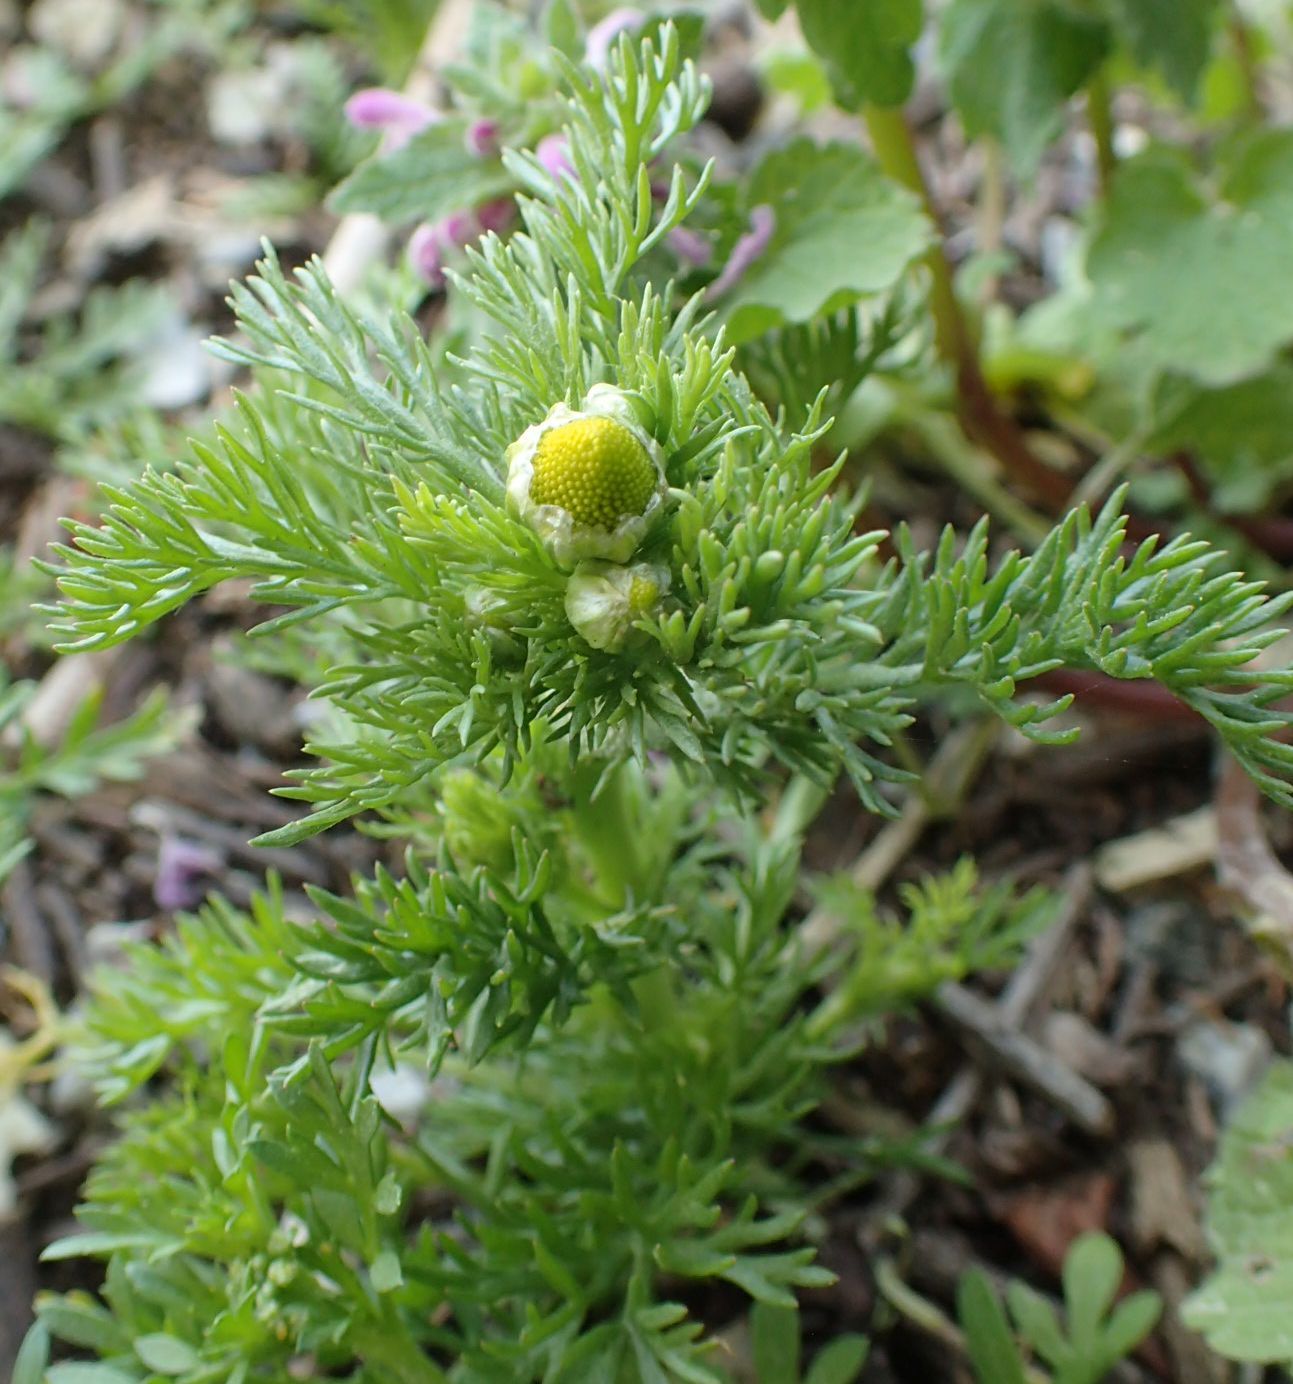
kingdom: Plantae
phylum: Tracheophyta
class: Magnoliopsida
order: Asterales
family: Asteraceae
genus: Matricaria
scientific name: Matricaria discoidea
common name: Disc mayweed
